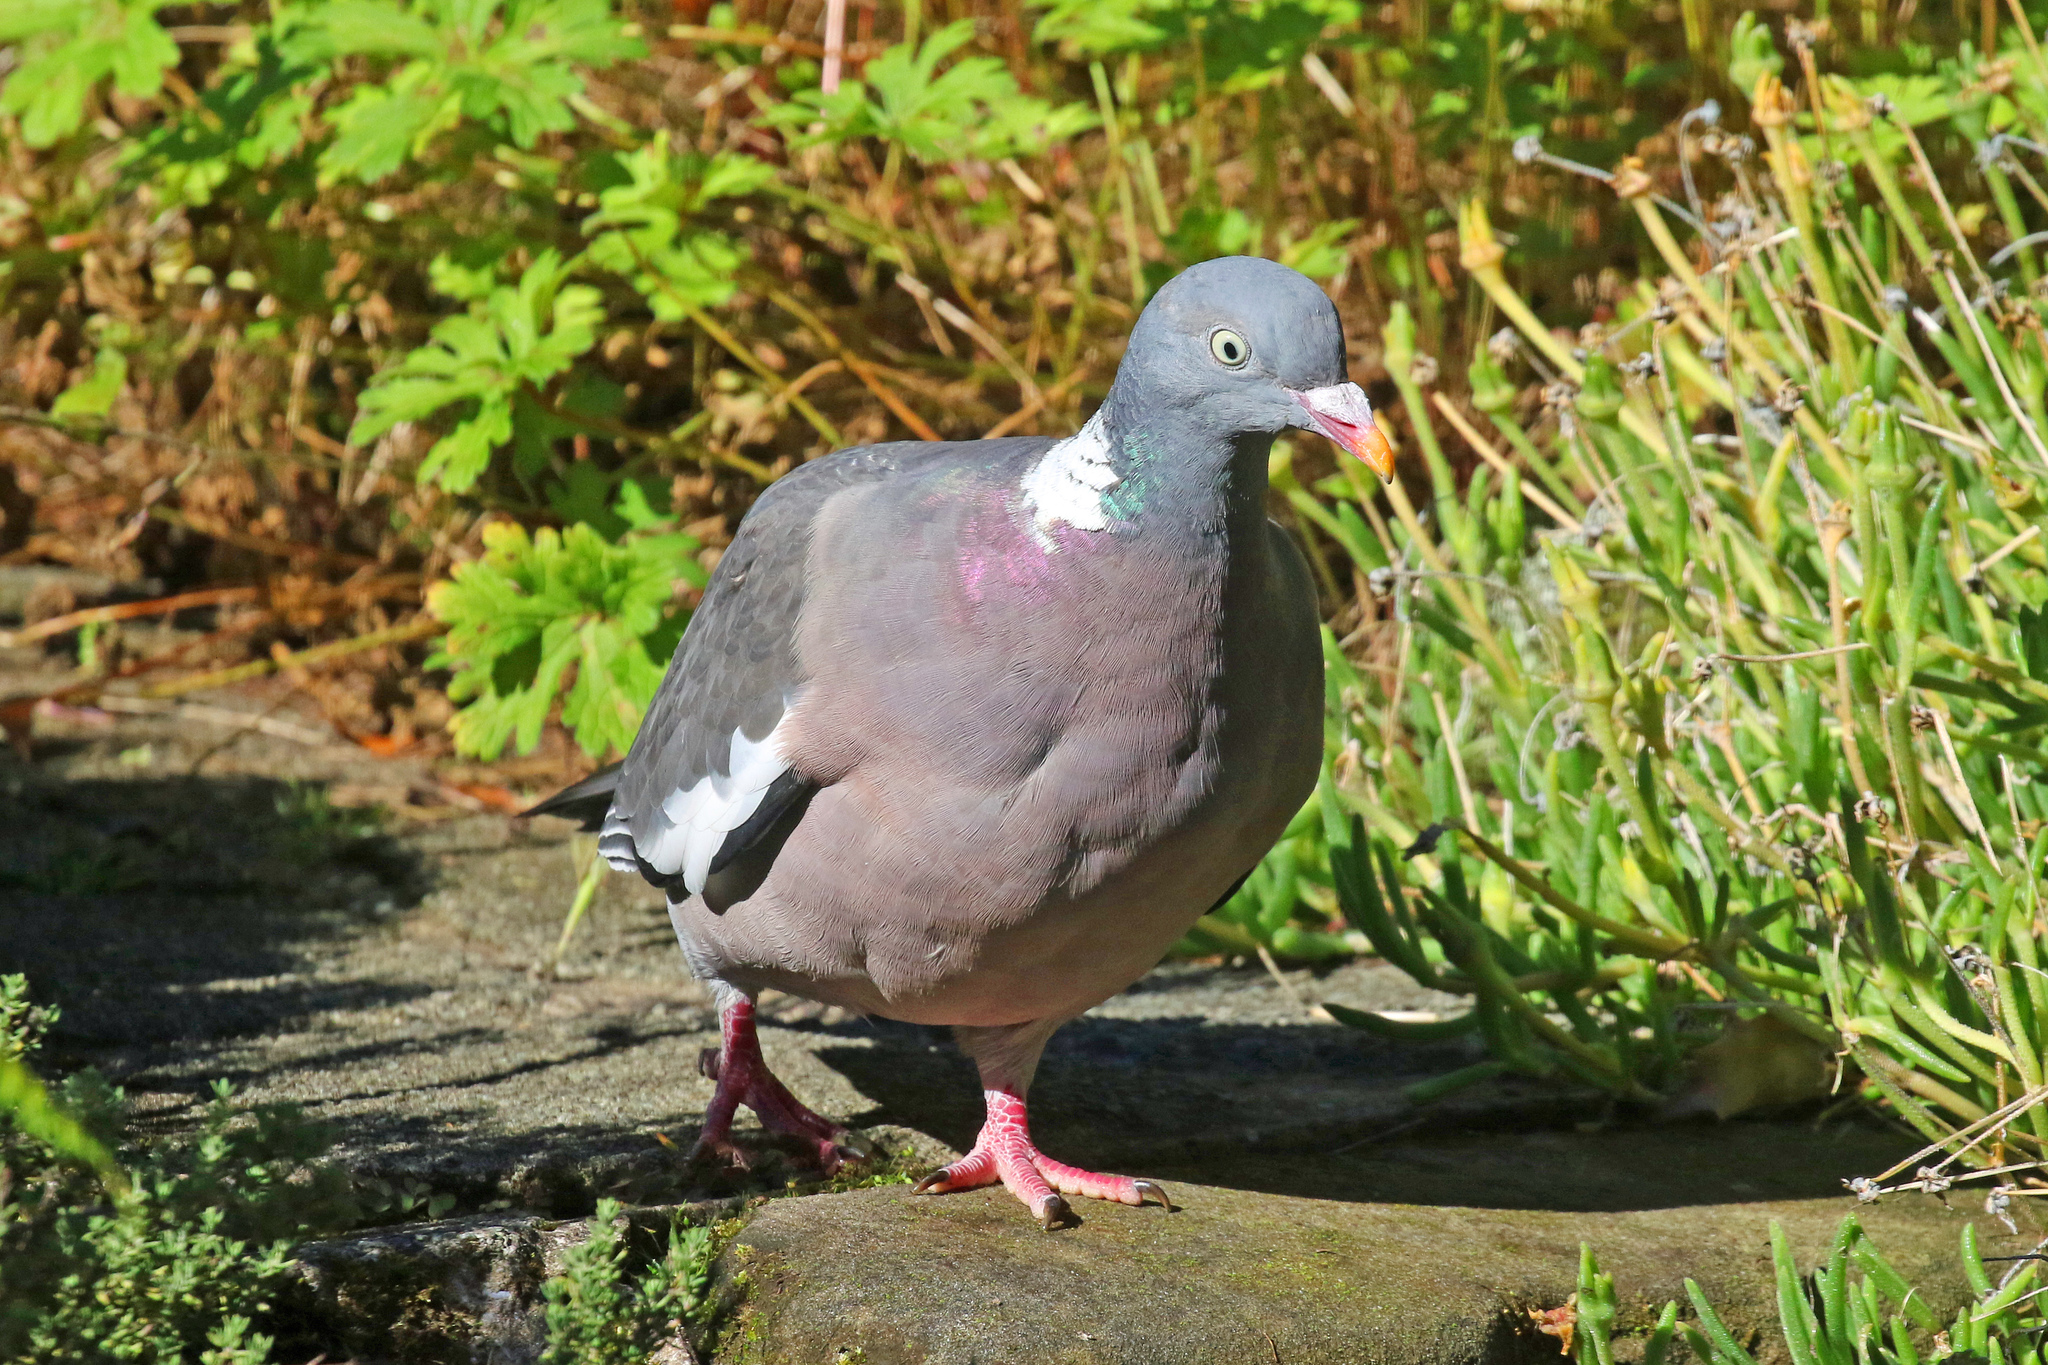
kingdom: Animalia
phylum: Chordata
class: Aves
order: Columbiformes
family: Columbidae
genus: Columba
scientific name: Columba palumbus
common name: Common wood pigeon
